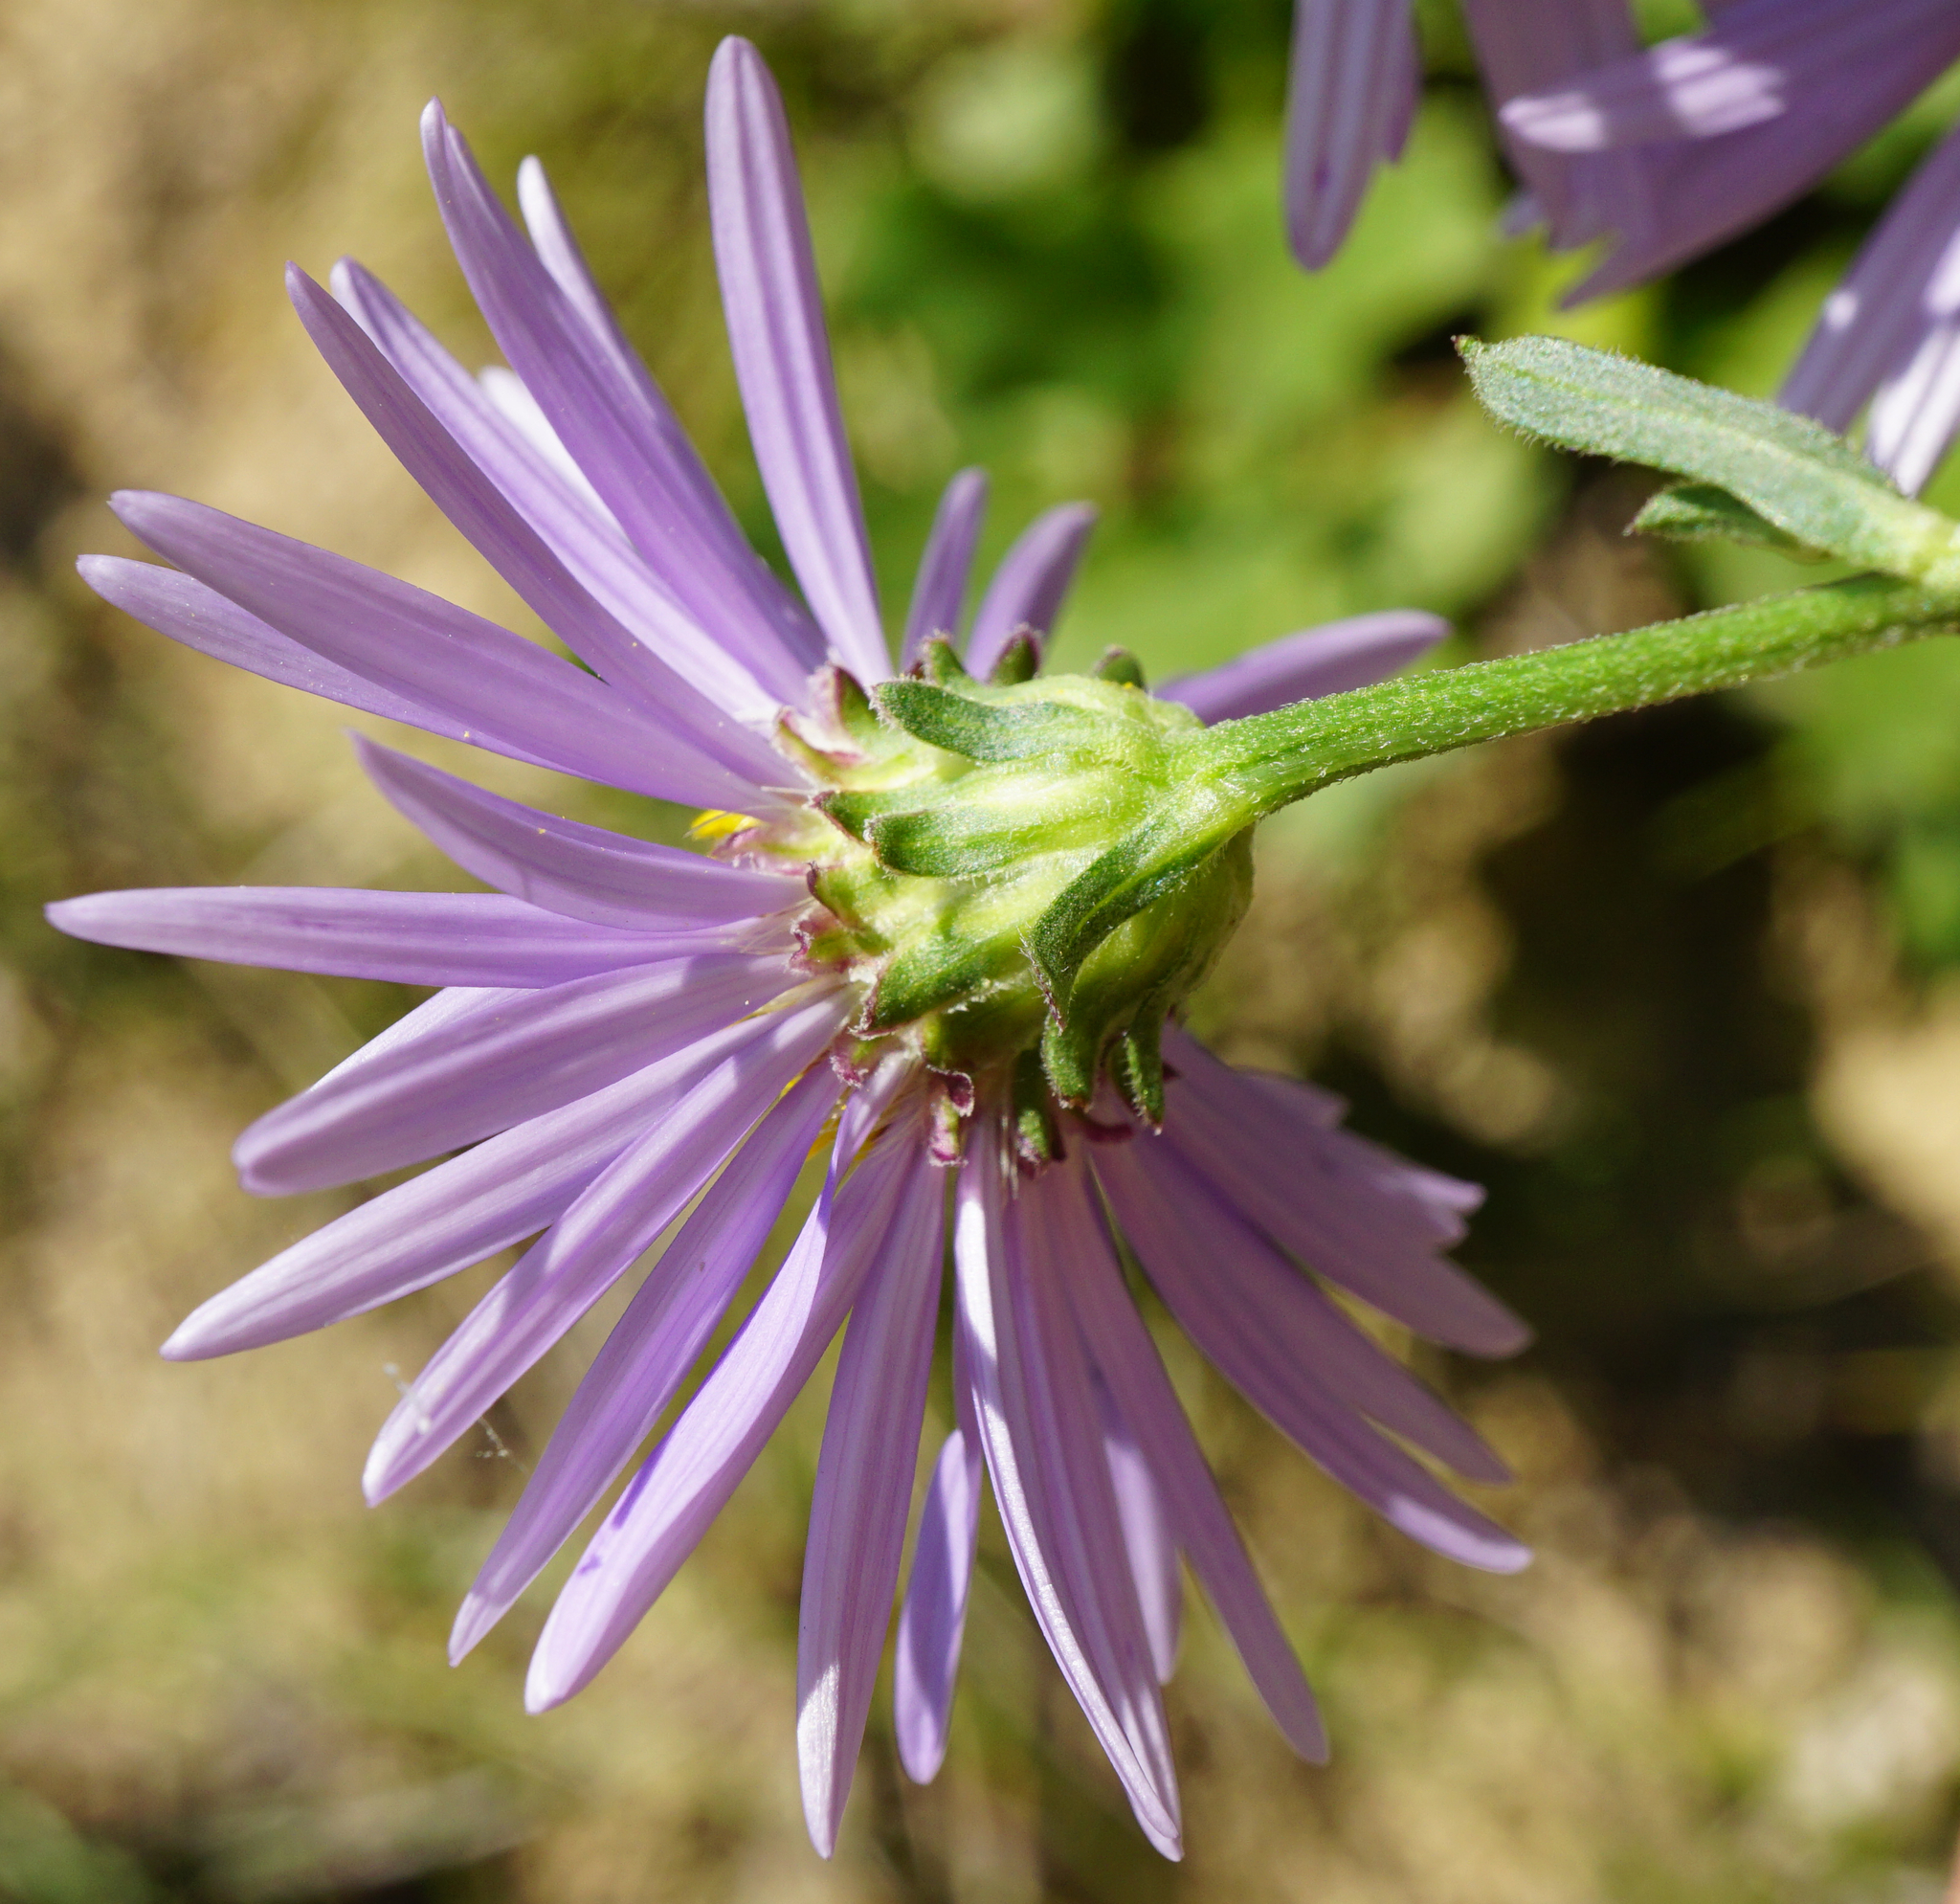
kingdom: Plantae
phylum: Tracheophyta
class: Magnoliopsida
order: Asterales
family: Asteraceae
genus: Aster
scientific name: Aster amellus
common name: European michaelmas daisy
